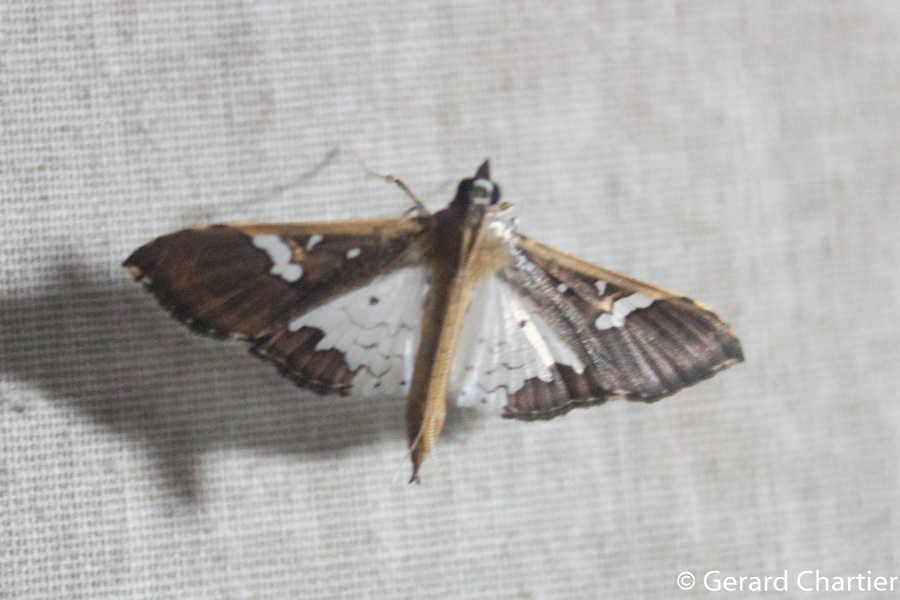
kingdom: Animalia
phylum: Arthropoda
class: Insecta
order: Lepidoptera
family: Crambidae
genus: Maruca
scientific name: Maruca vitrata
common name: Maruca pod borer
